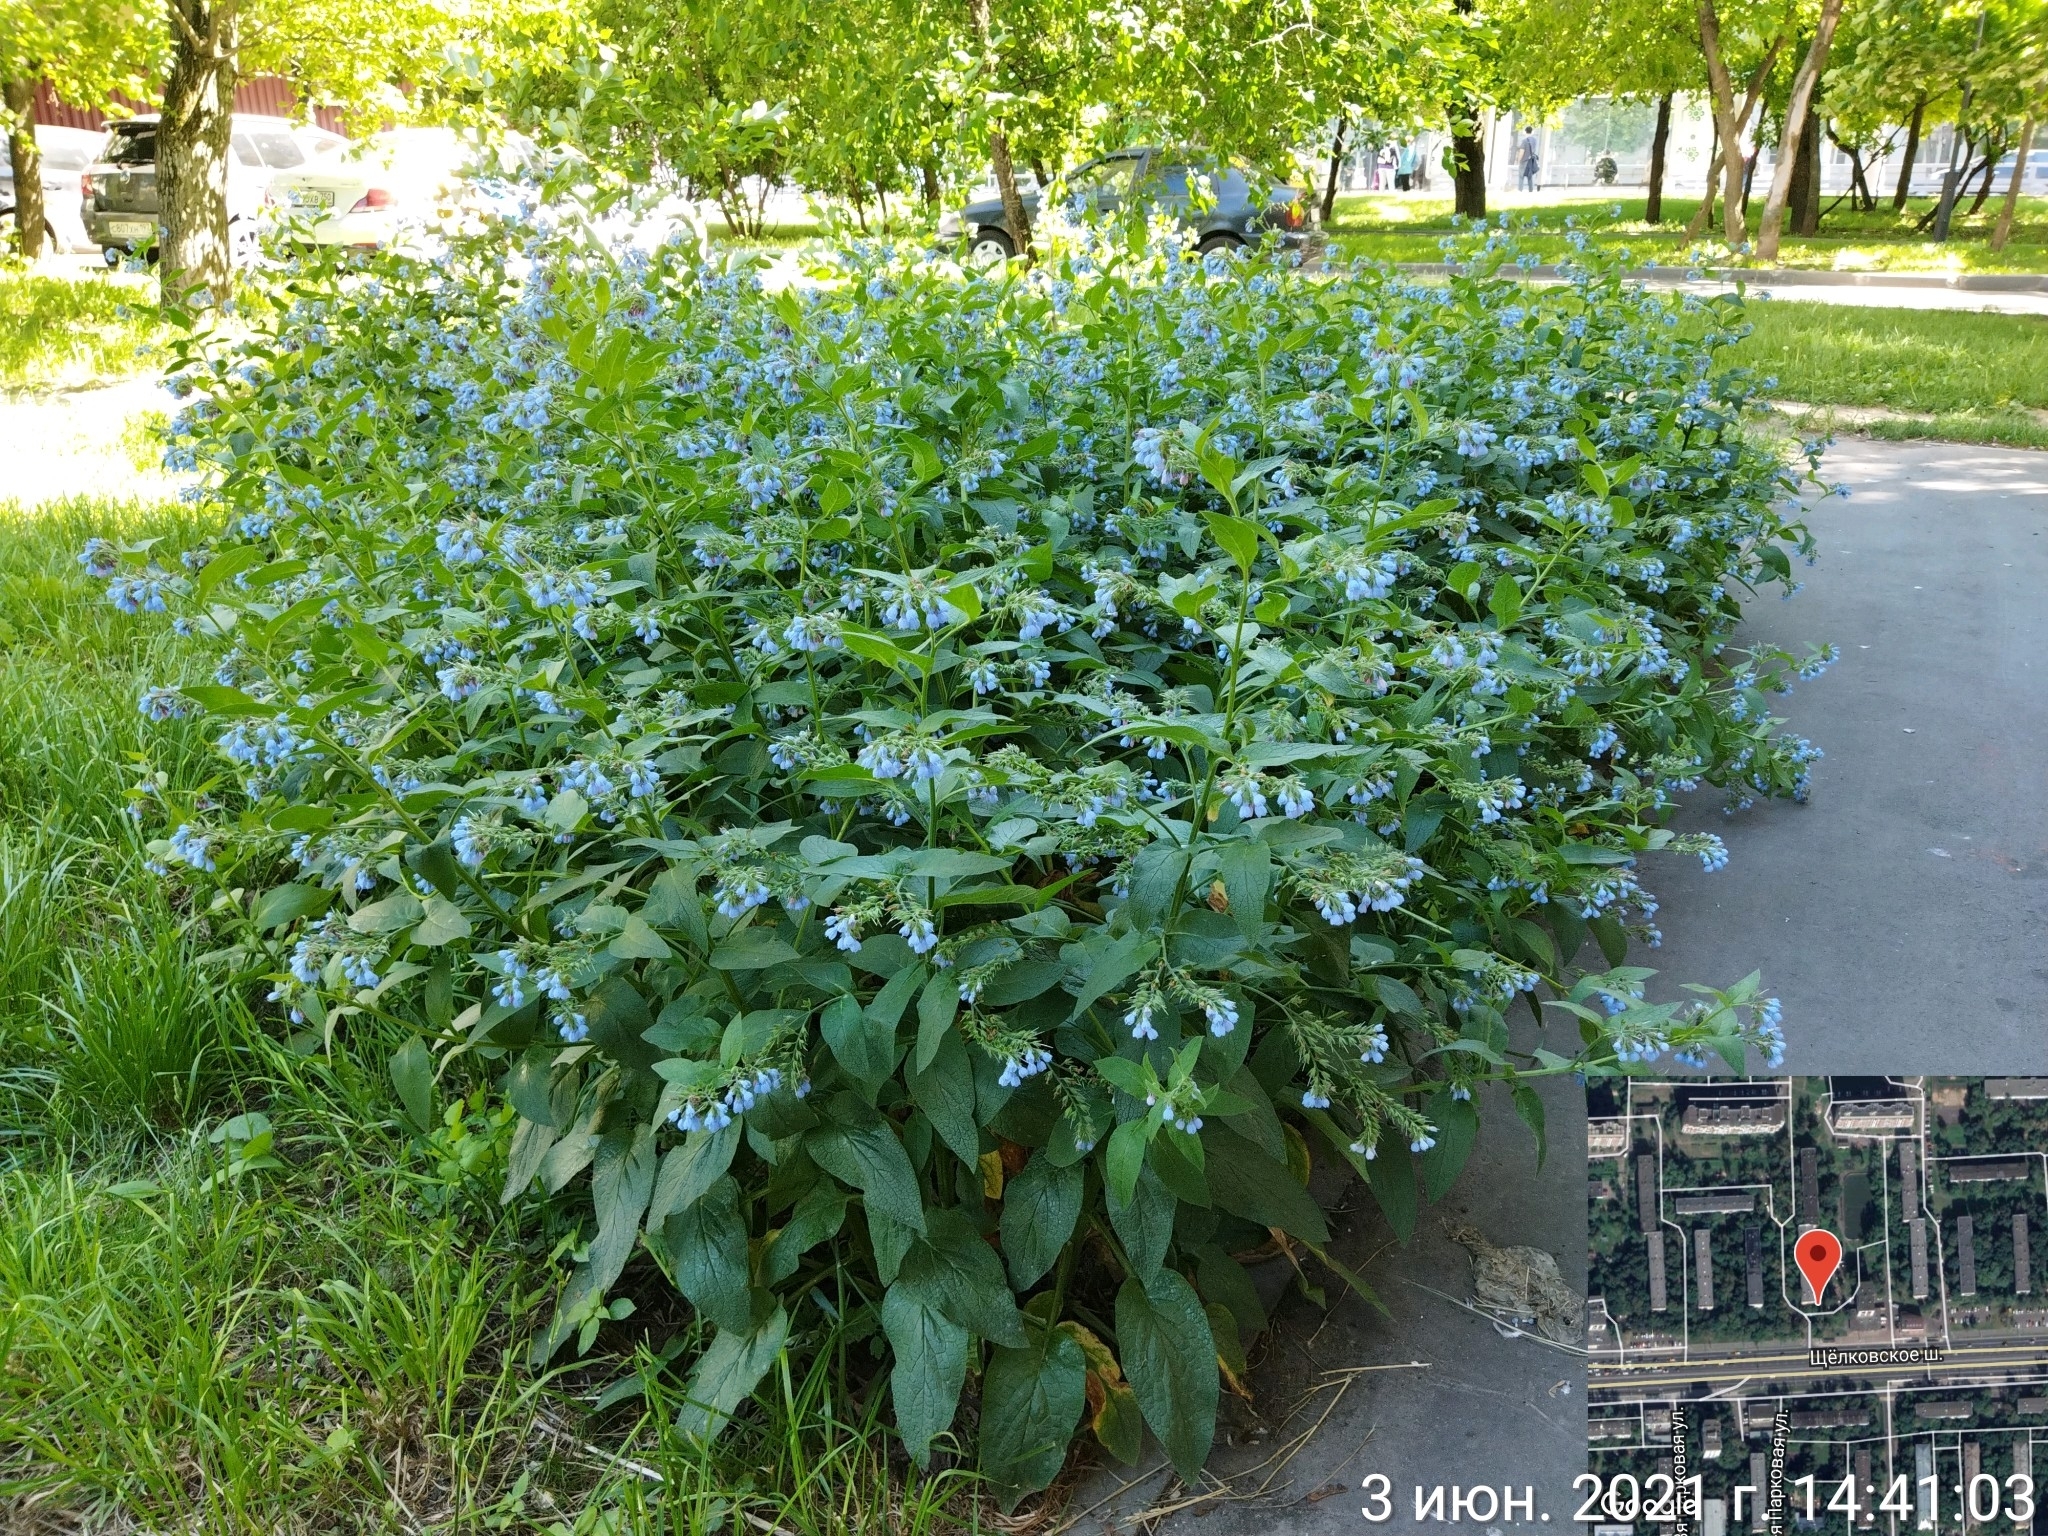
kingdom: Plantae
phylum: Tracheophyta
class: Magnoliopsida
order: Boraginales
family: Boraginaceae
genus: Symphytum
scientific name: Symphytum caucasicum
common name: Caucasian comfrey
